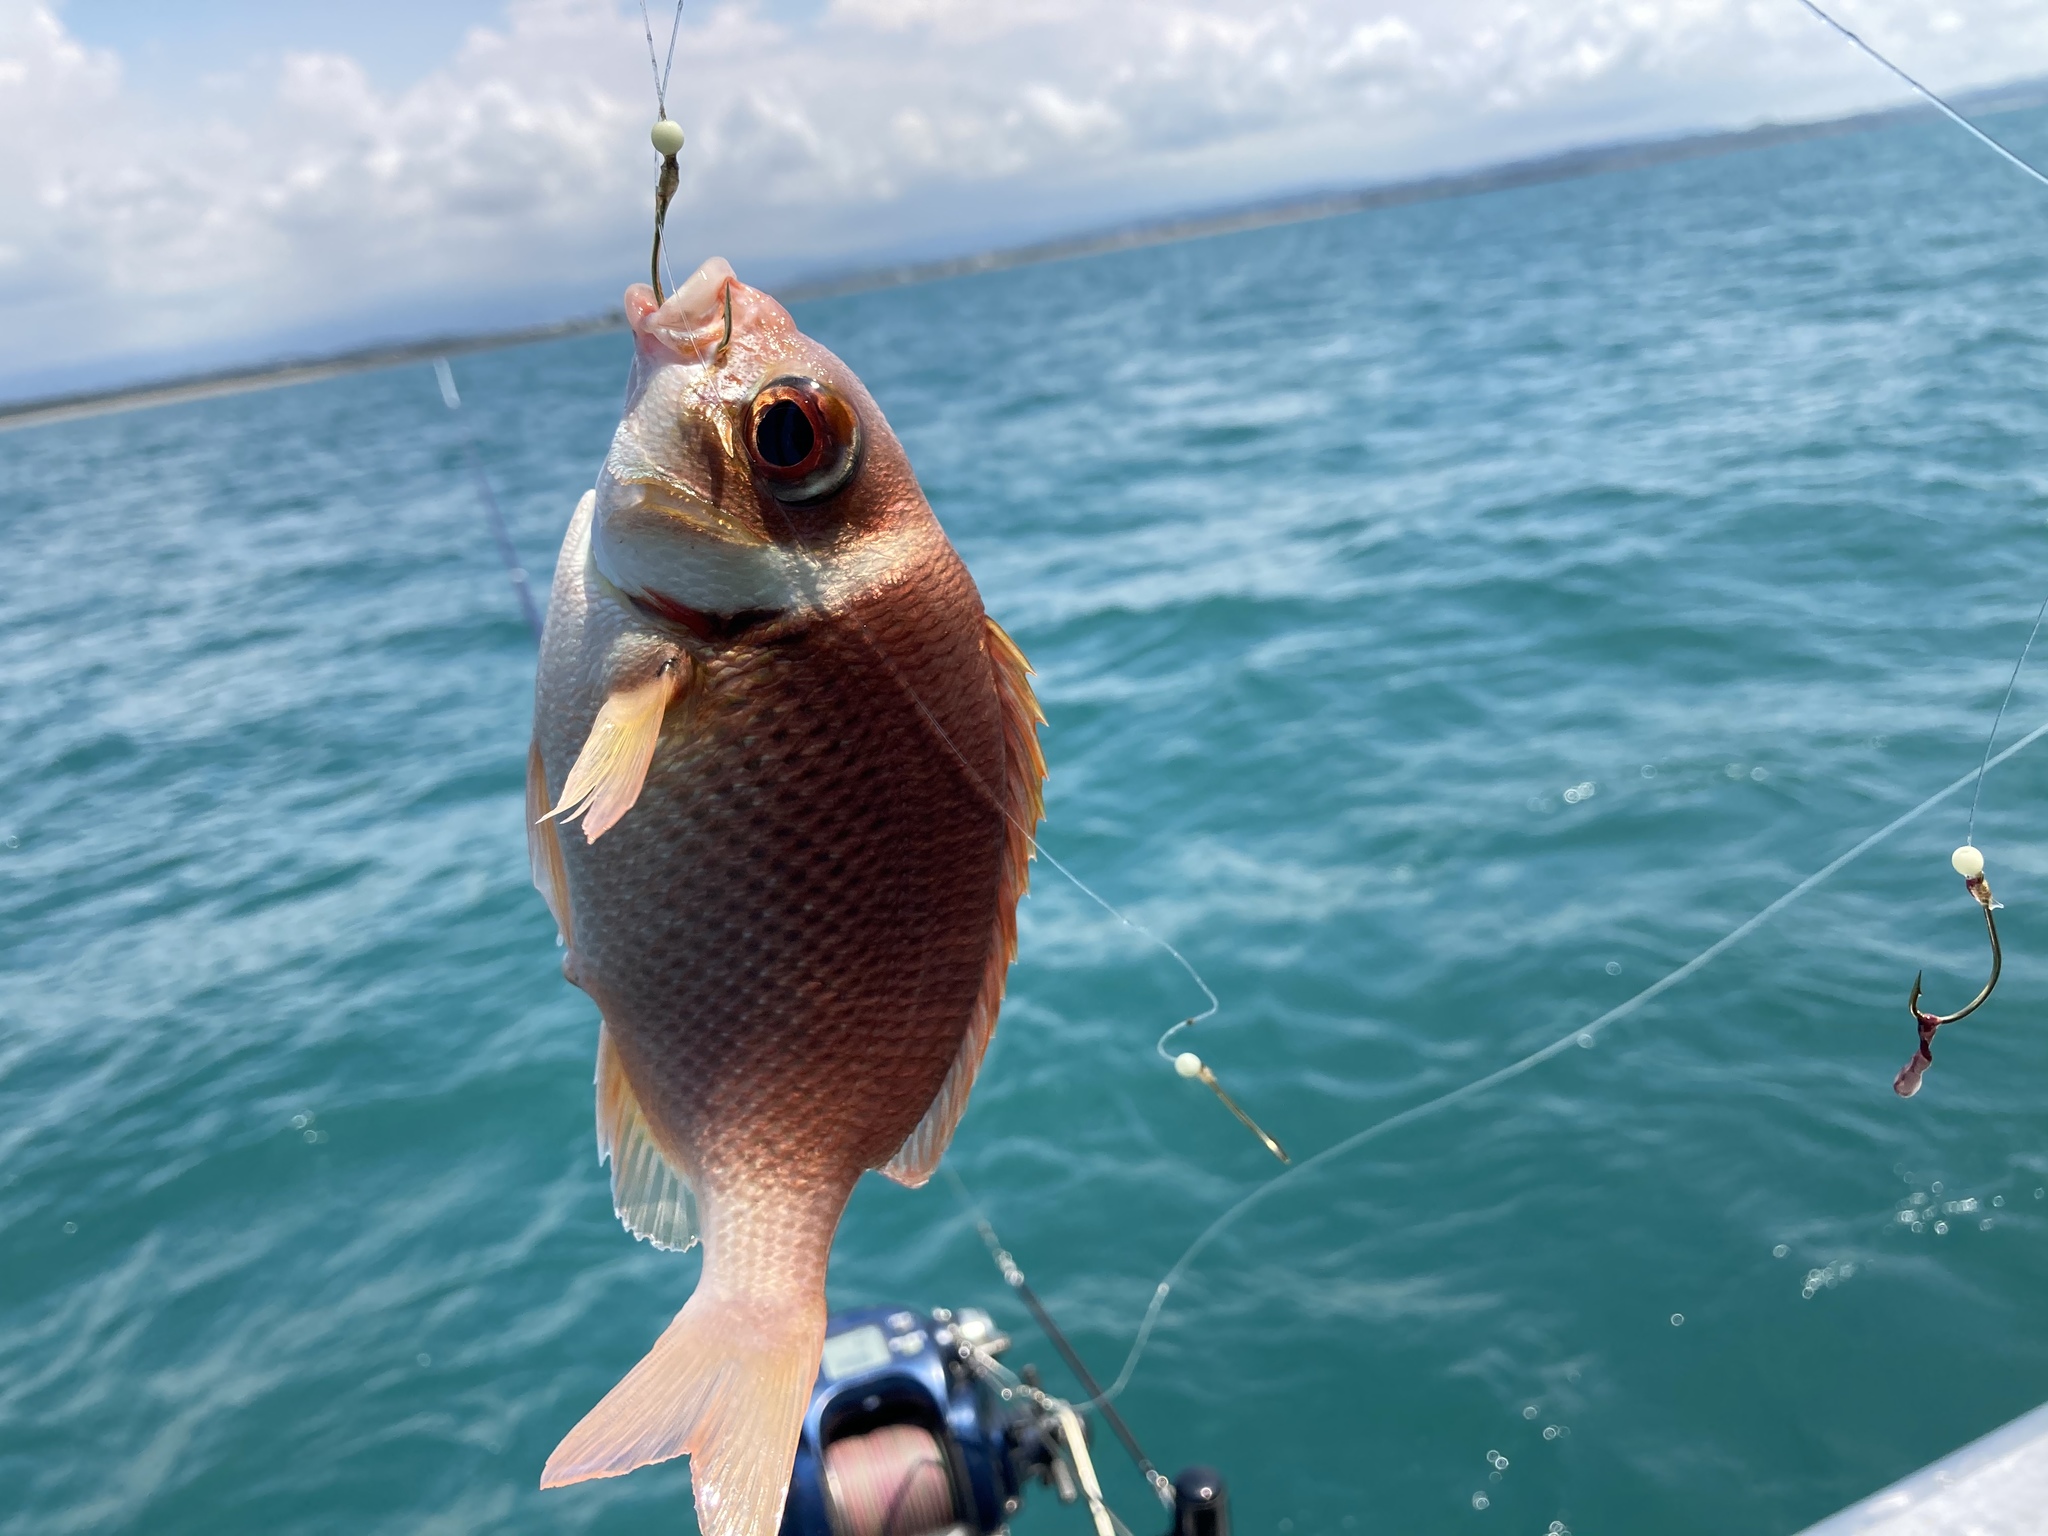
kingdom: Animalia
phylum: Chordata
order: Perciformes
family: Nemipteridae
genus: Scolopsis
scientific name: Scolopsis vosmeri
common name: Whitecheek monocle bream
